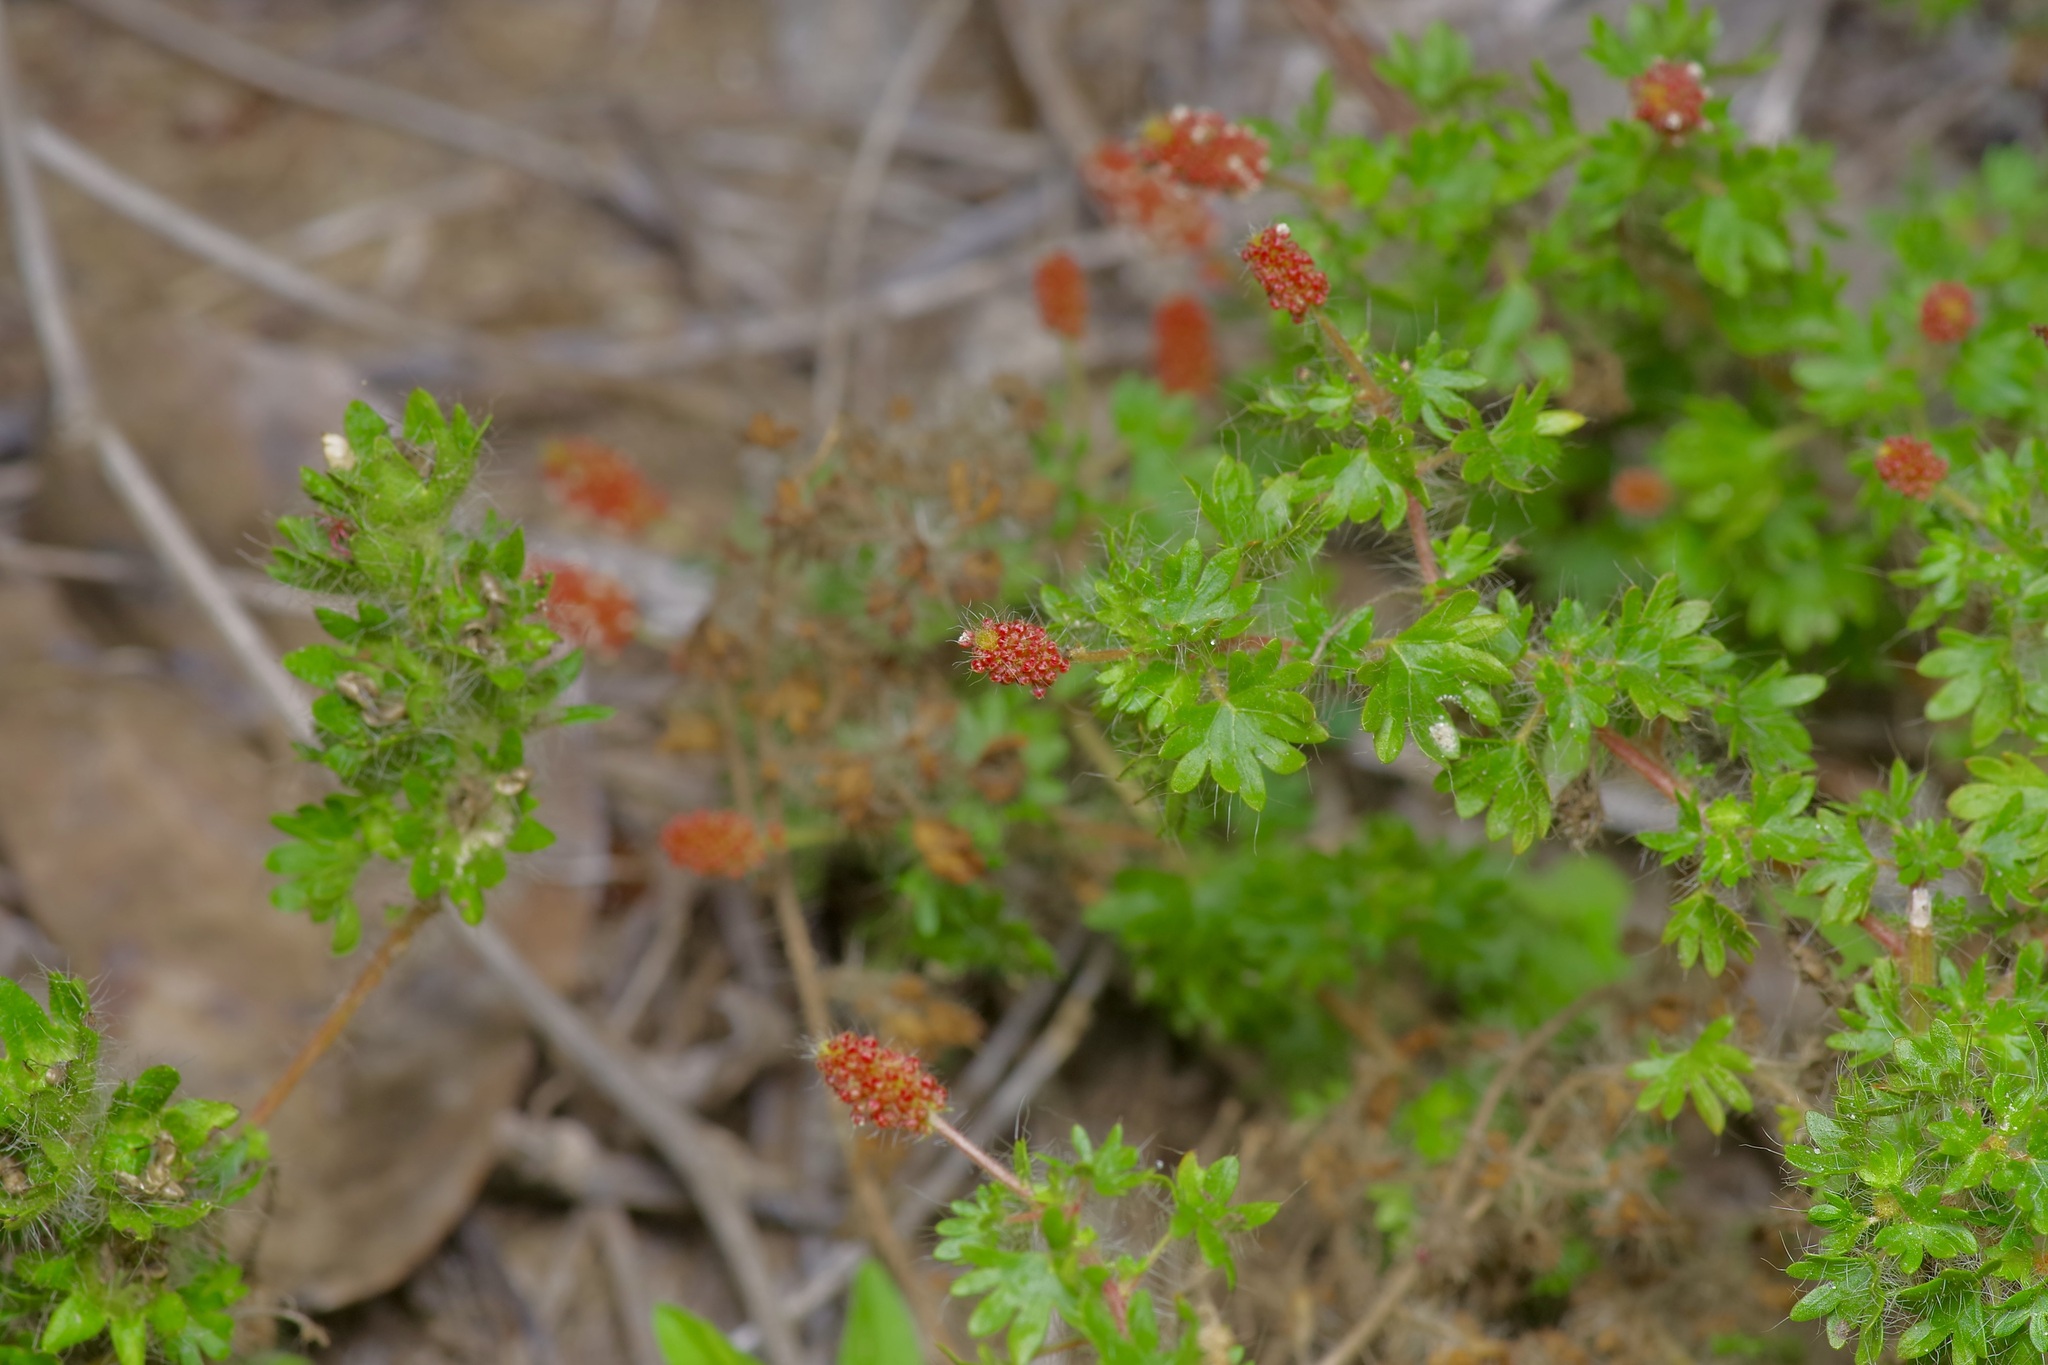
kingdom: Plantae
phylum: Tracheophyta
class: Magnoliopsida
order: Malpighiales
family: Euphorbiaceae
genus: Acalypha
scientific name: Acalypha radians
